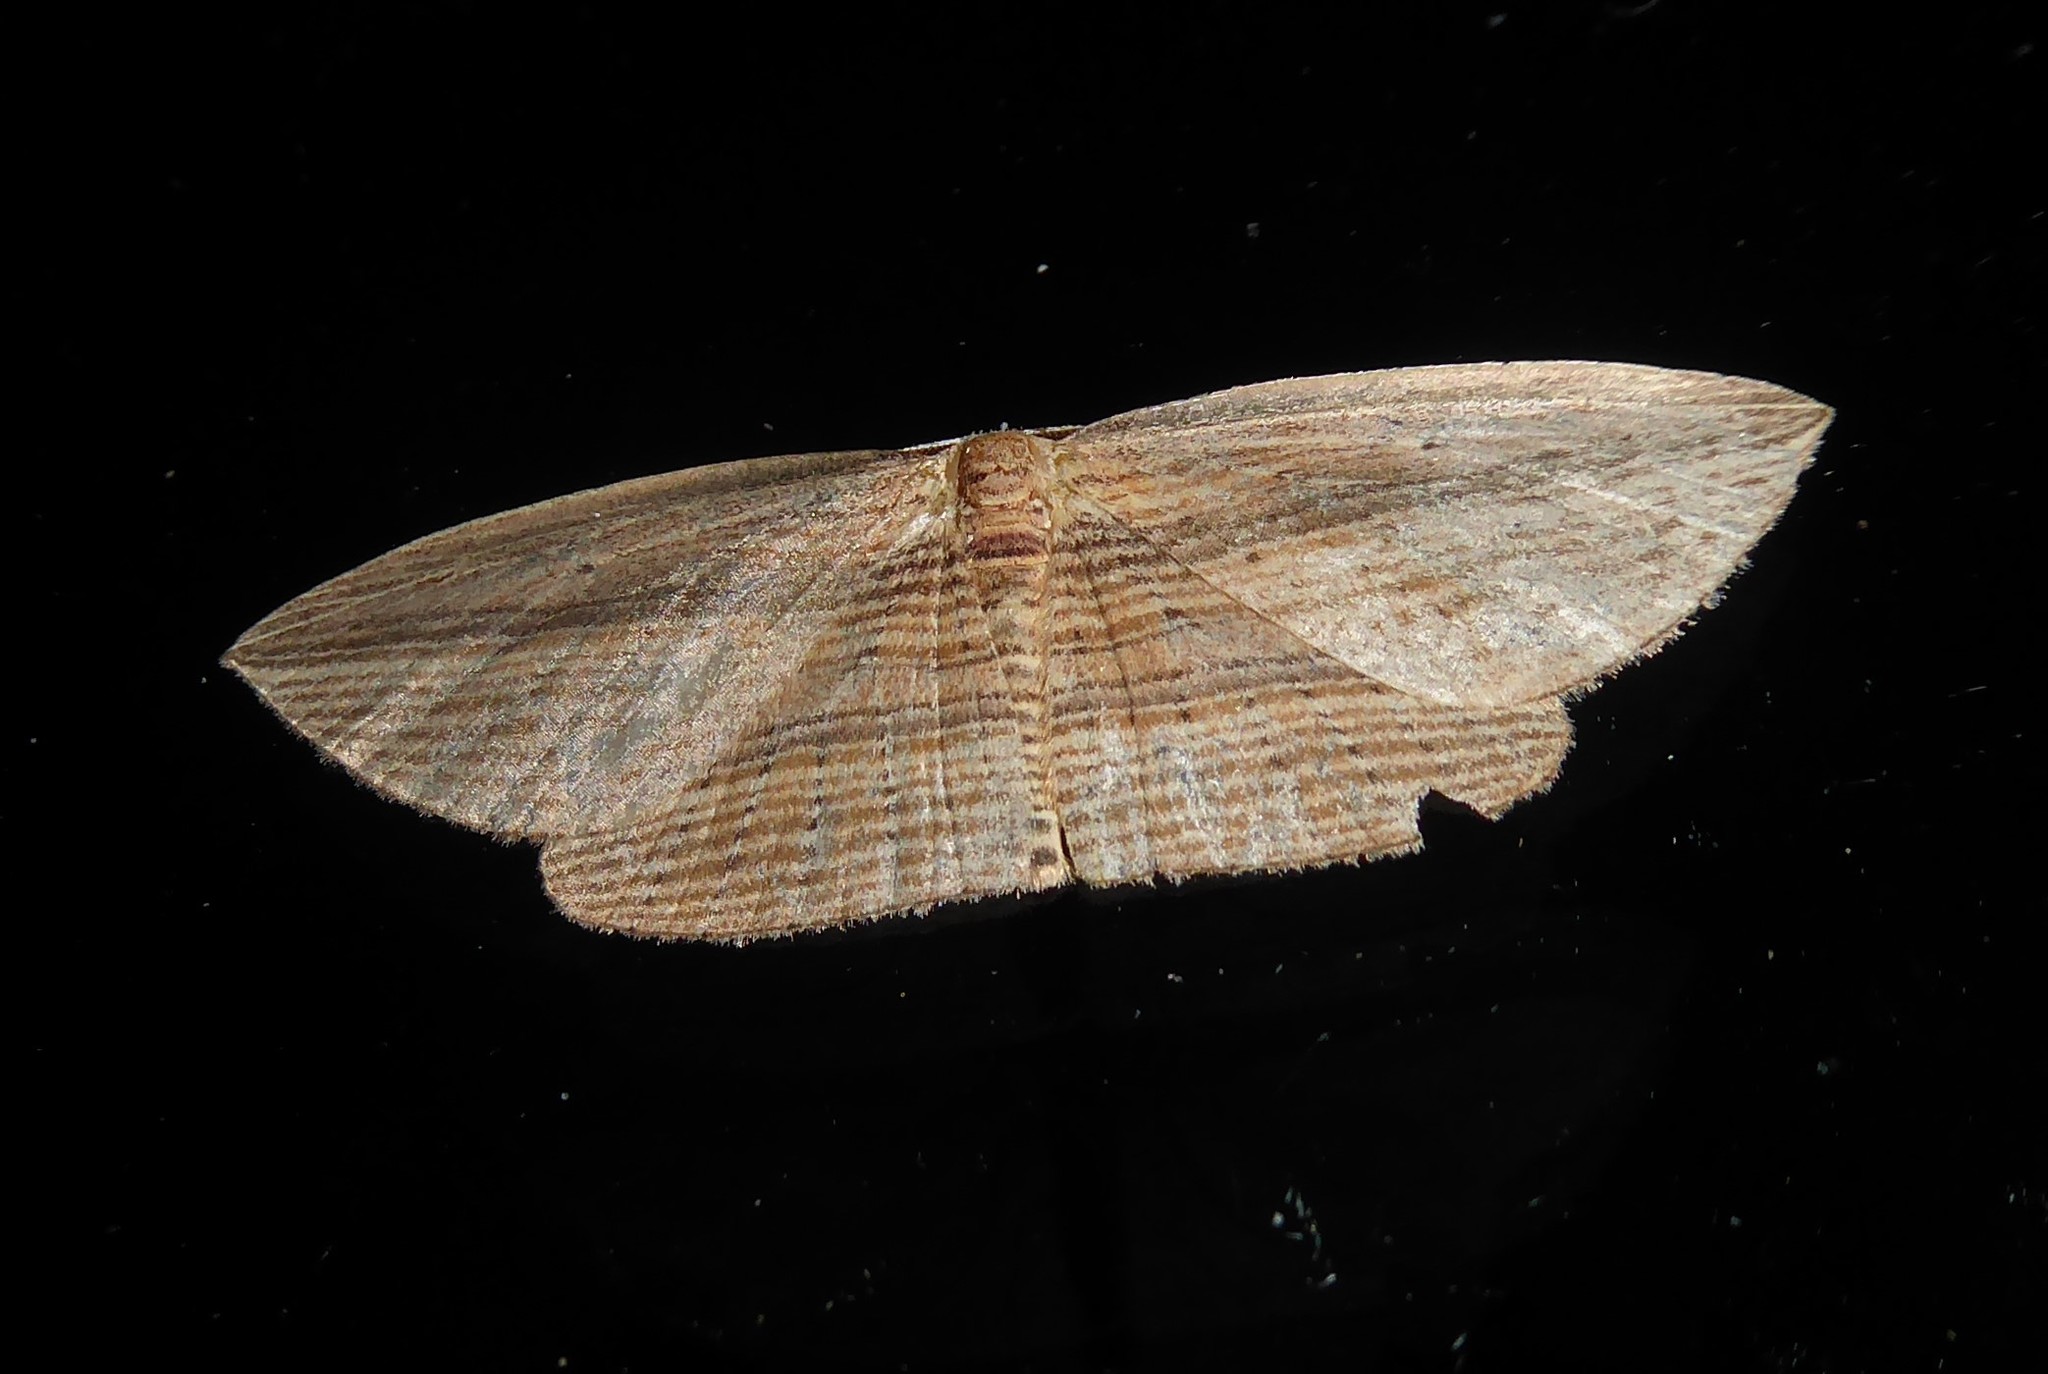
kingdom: Animalia
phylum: Arthropoda
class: Insecta
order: Lepidoptera
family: Geometridae
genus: Epiphryne
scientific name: Epiphryne verriculata
